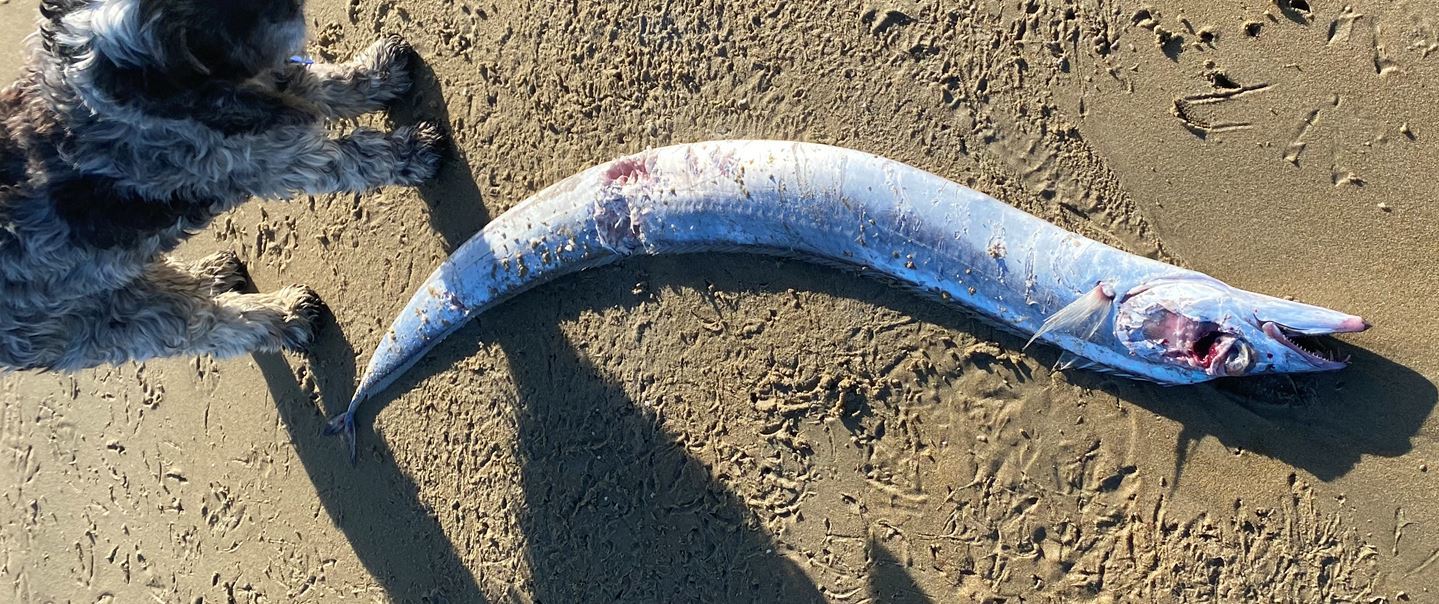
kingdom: Animalia
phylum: Chordata
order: Perciformes
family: Trichiuridae
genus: Lepidopus
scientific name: Lepidopus caudatus
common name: Silver scabbardfish
